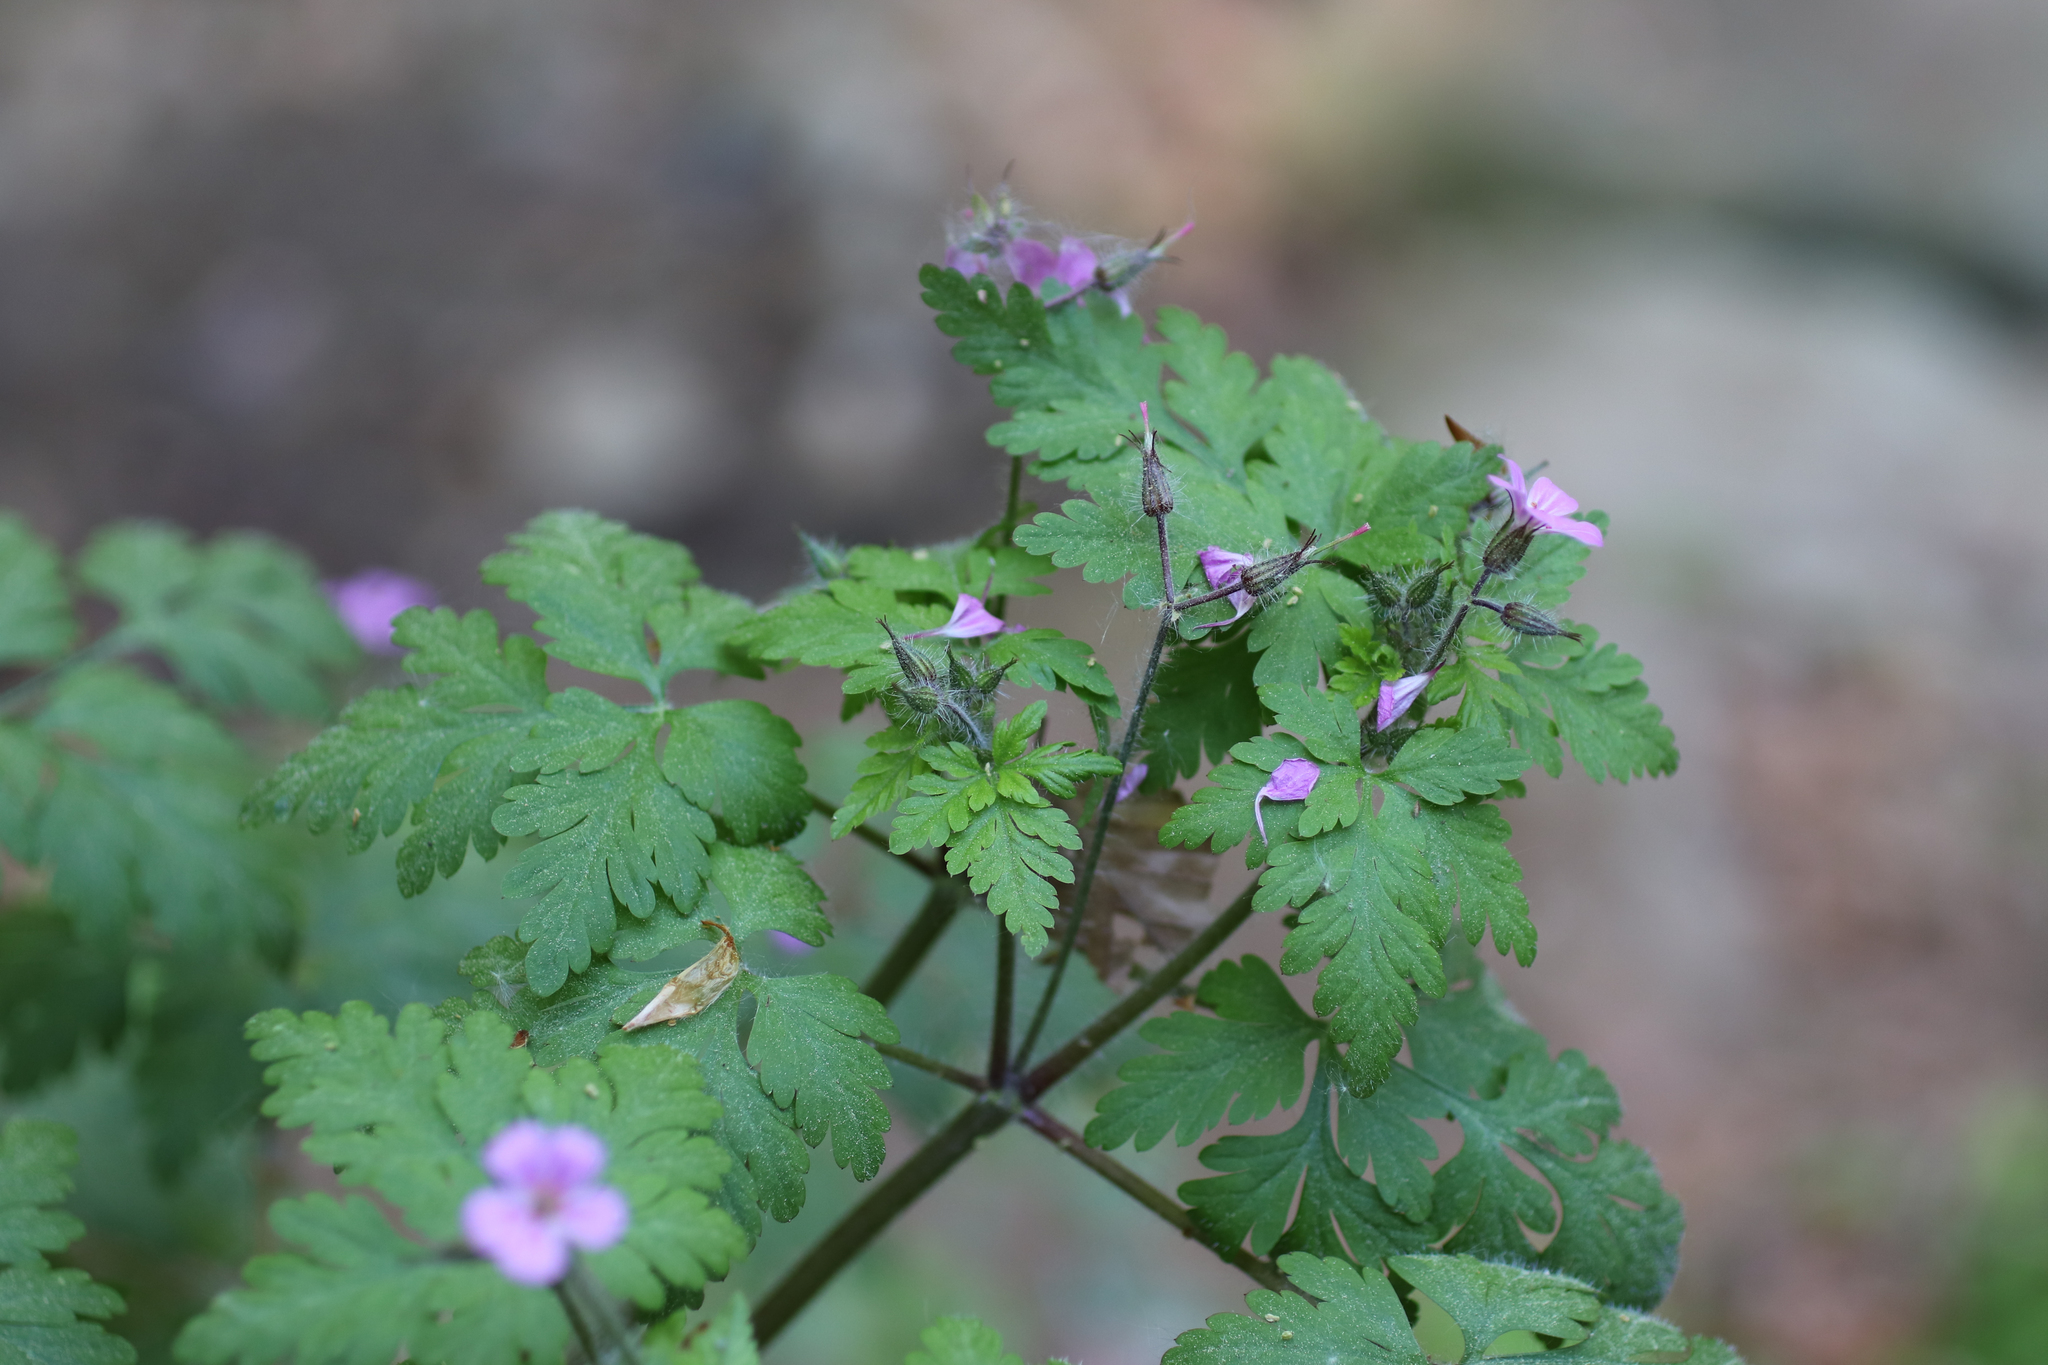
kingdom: Plantae
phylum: Tracheophyta
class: Magnoliopsida
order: Geraniales
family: Geraniaceae
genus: Geranium
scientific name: Geranium robertianum
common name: Herb-robert
